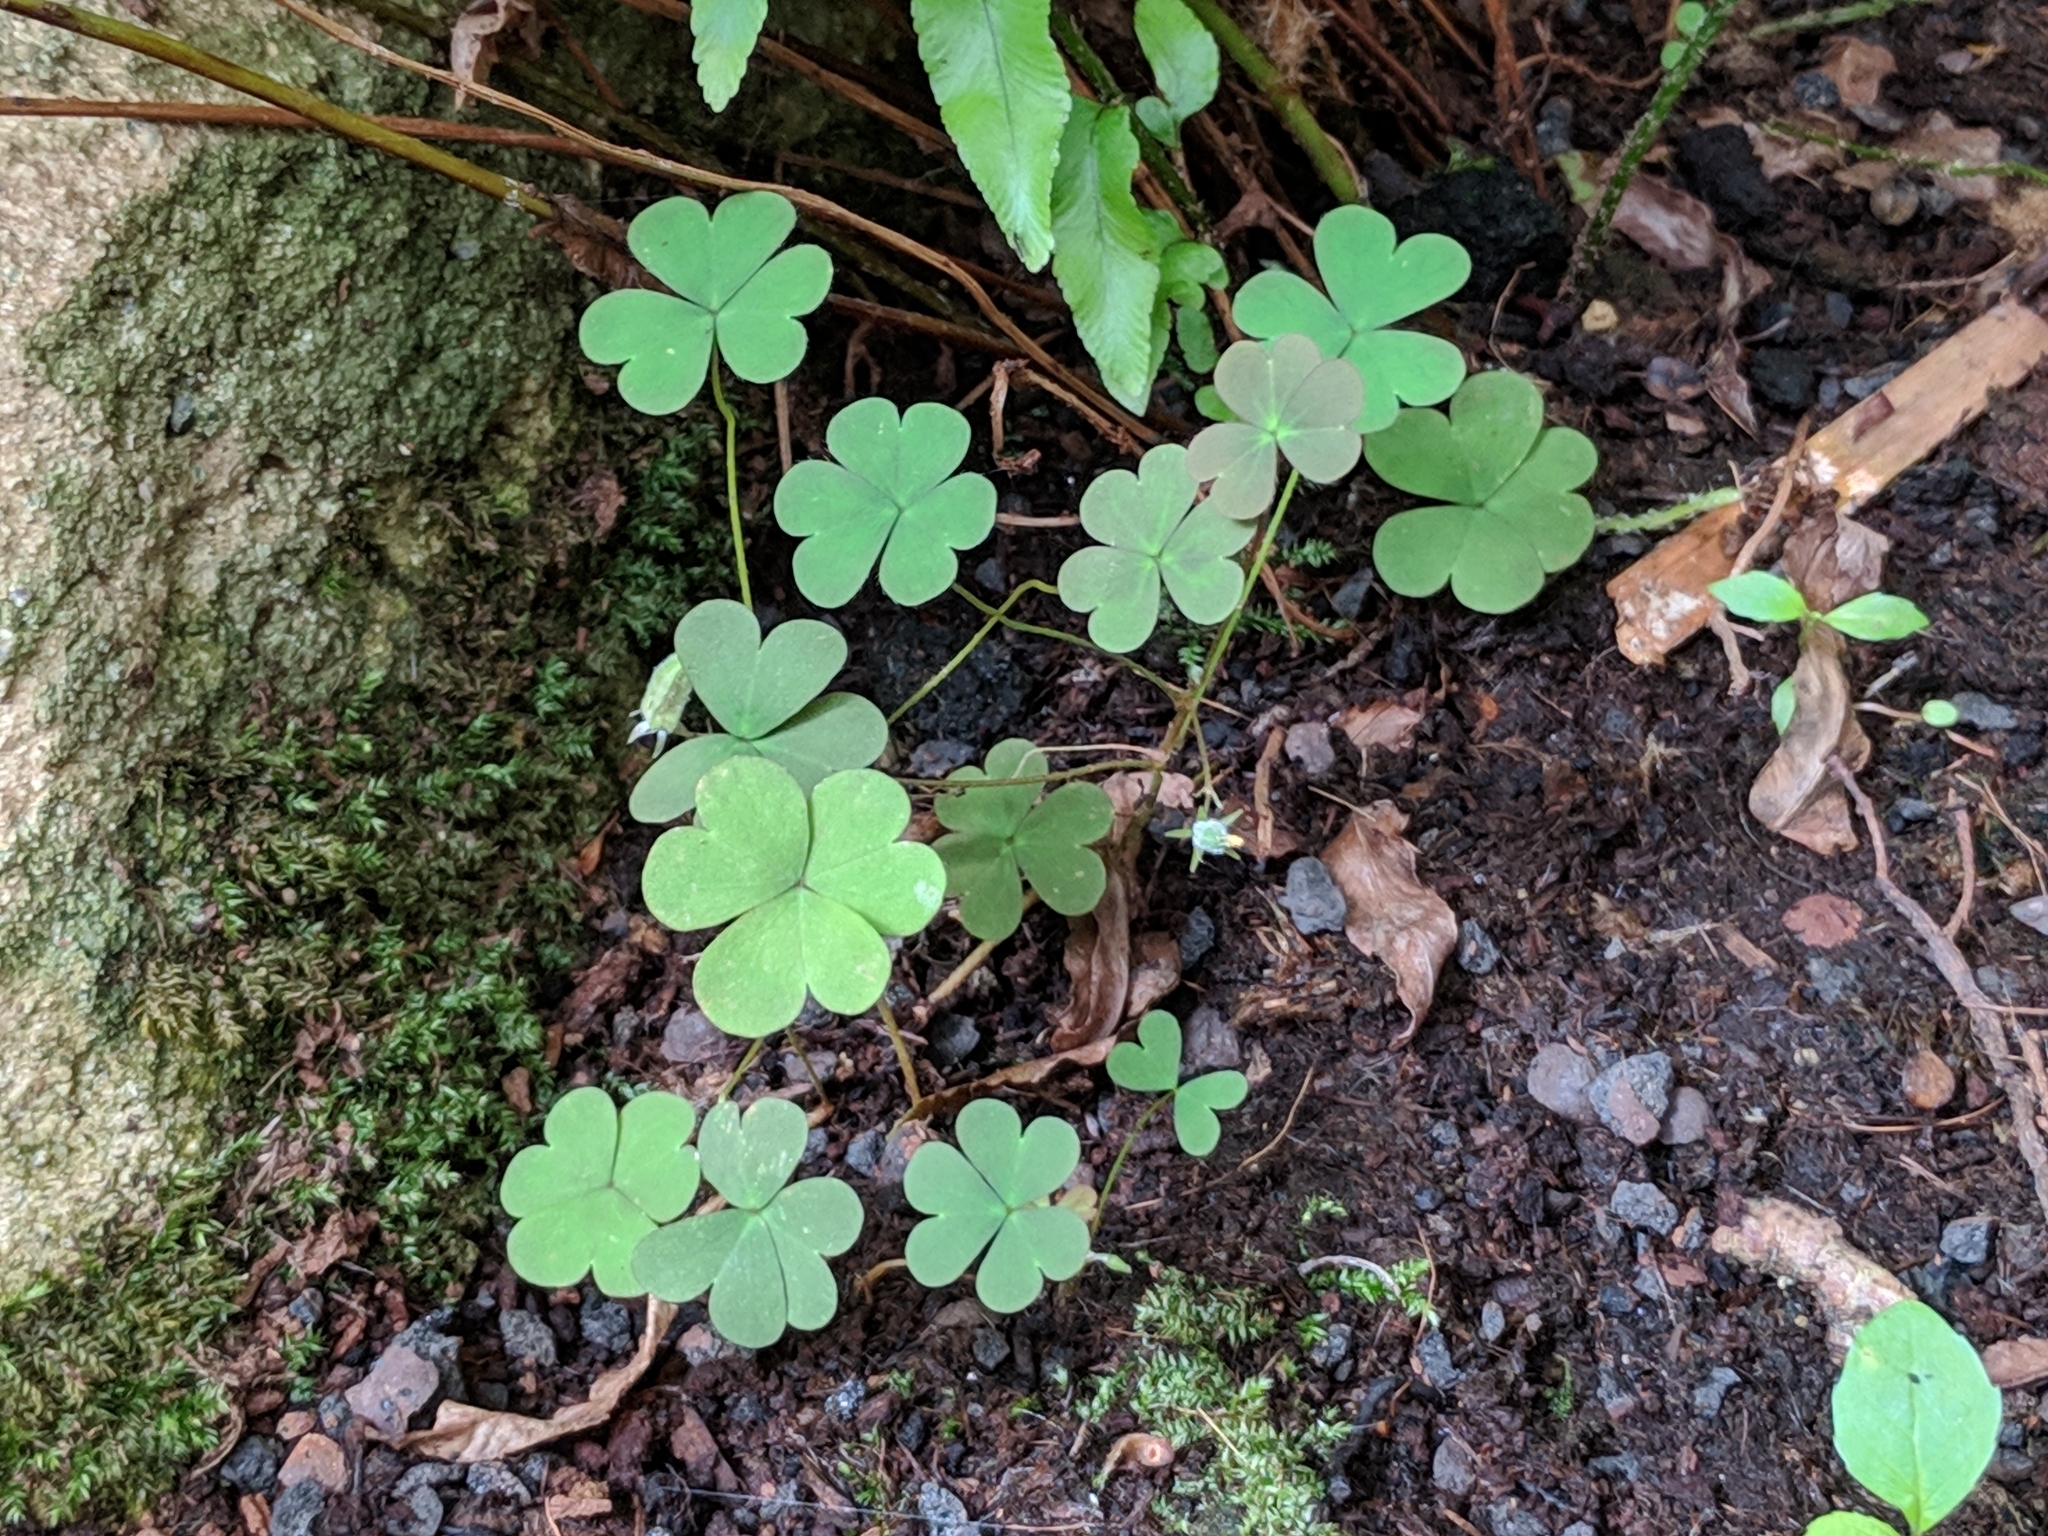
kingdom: Plantae
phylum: Tracheophyta
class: Magnoliopsida
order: Oxalidales
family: Oxalidaceae
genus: Oxalis
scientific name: Oxalis corniculata
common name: Procumbent yellow-sorrel
